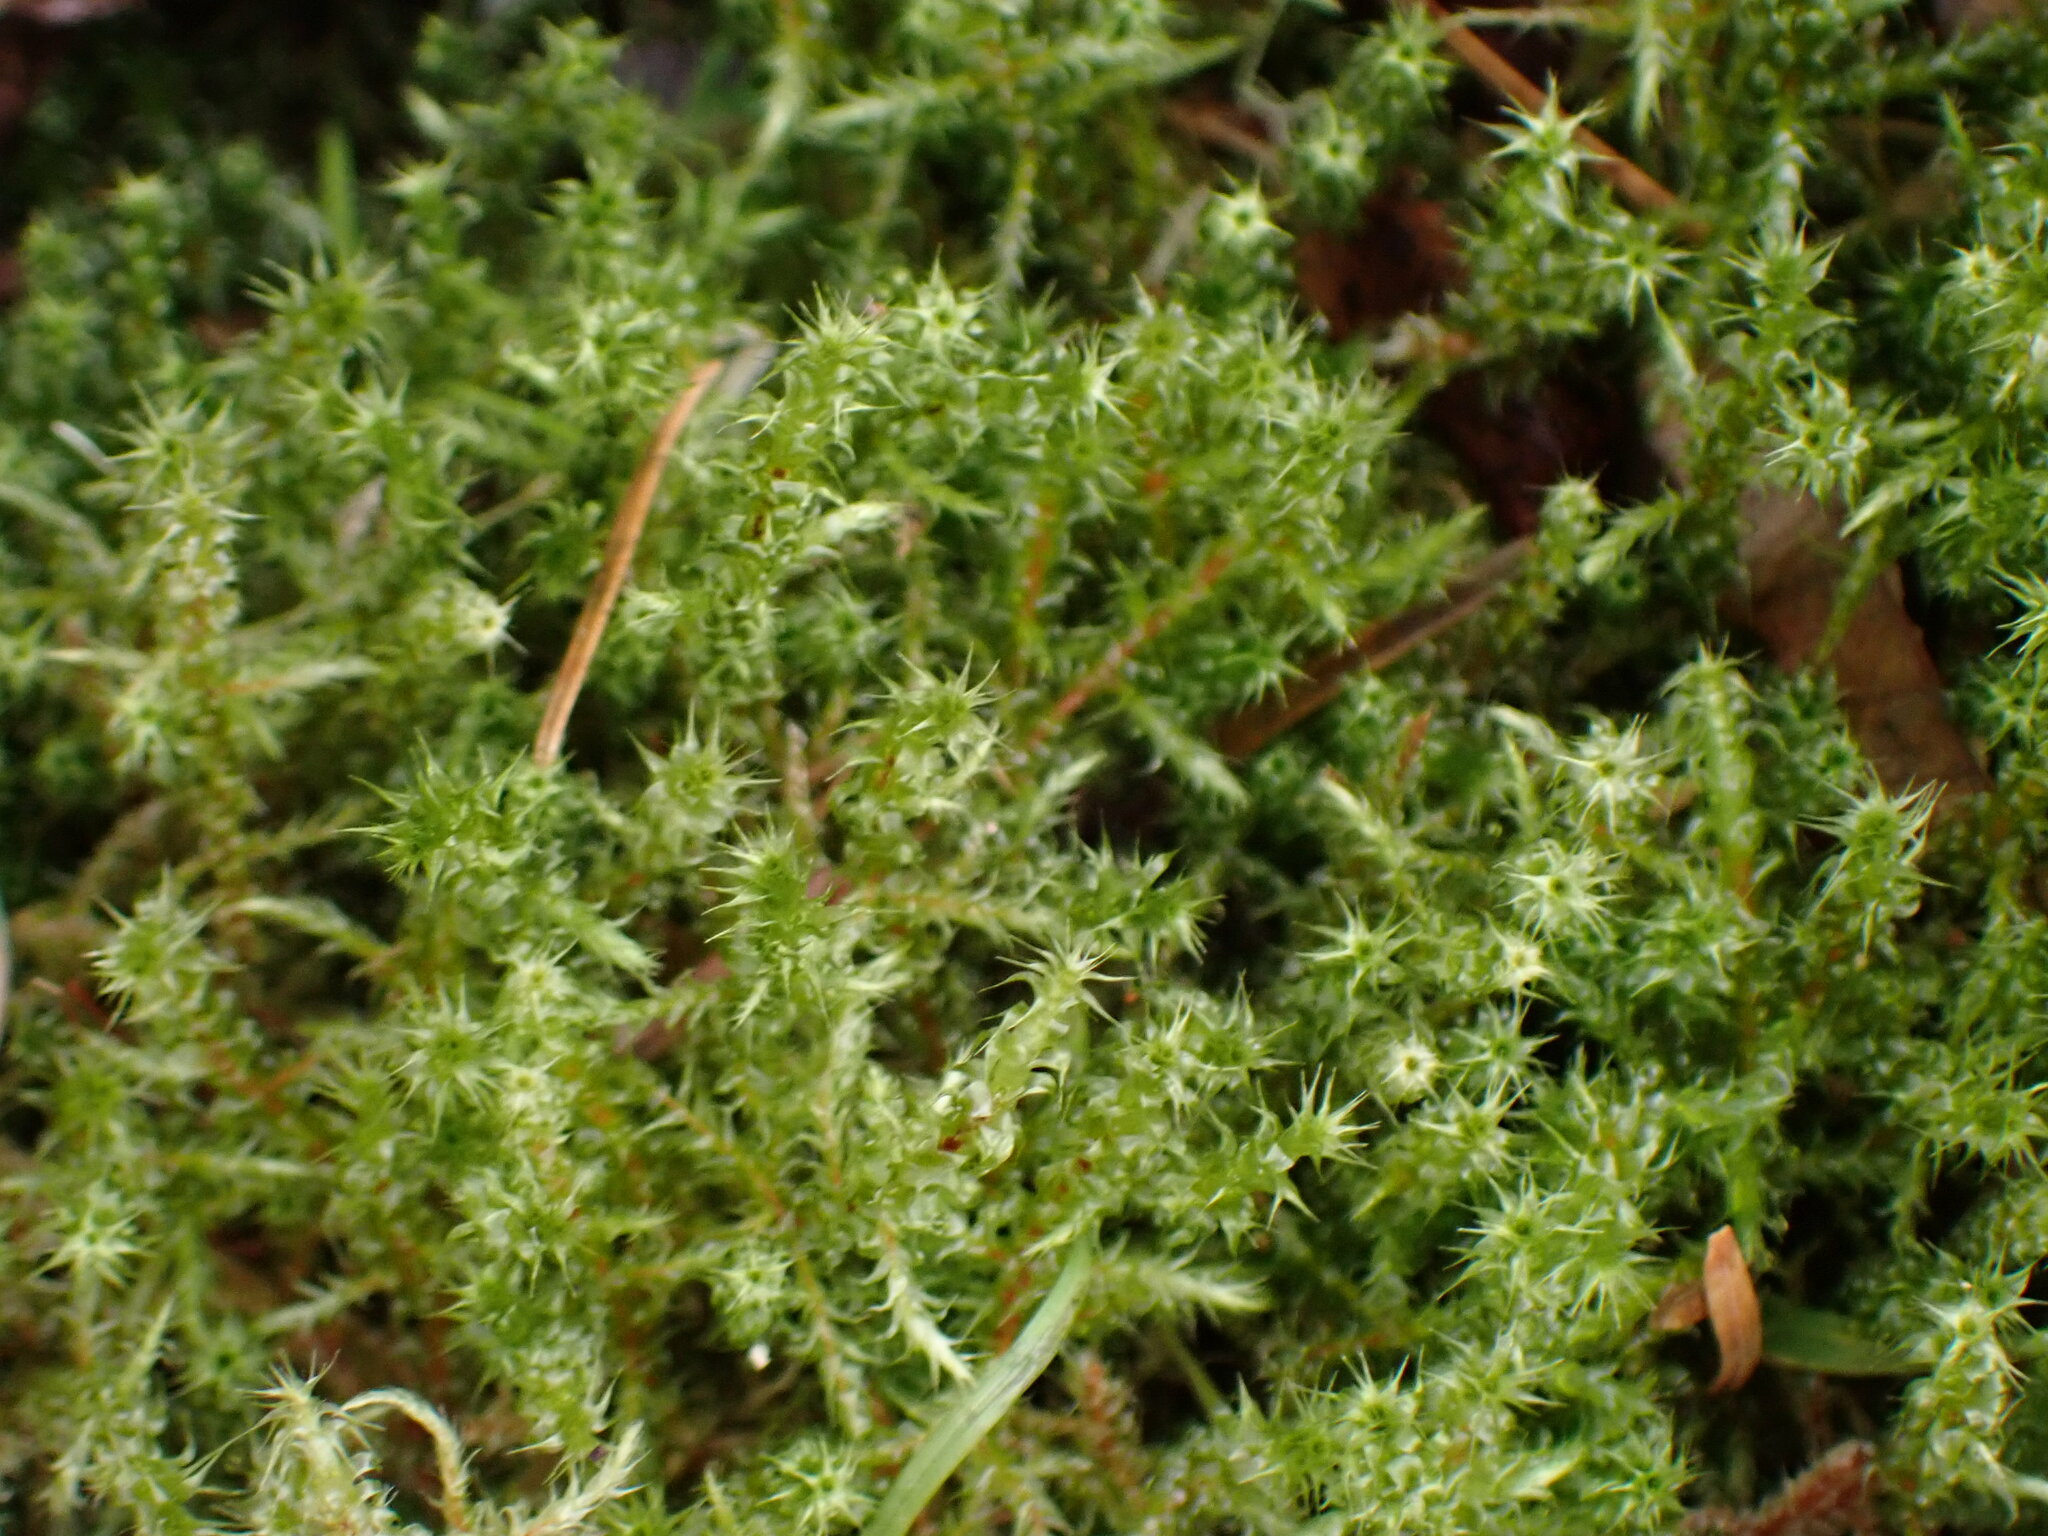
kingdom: Plantae
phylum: Bryophyta
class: Bryopsida
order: Hypnales
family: Hylocomiaceae
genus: Rhytidiadelphus
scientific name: Rhytidiadelphus squarrosus
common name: Springy turf-moss
